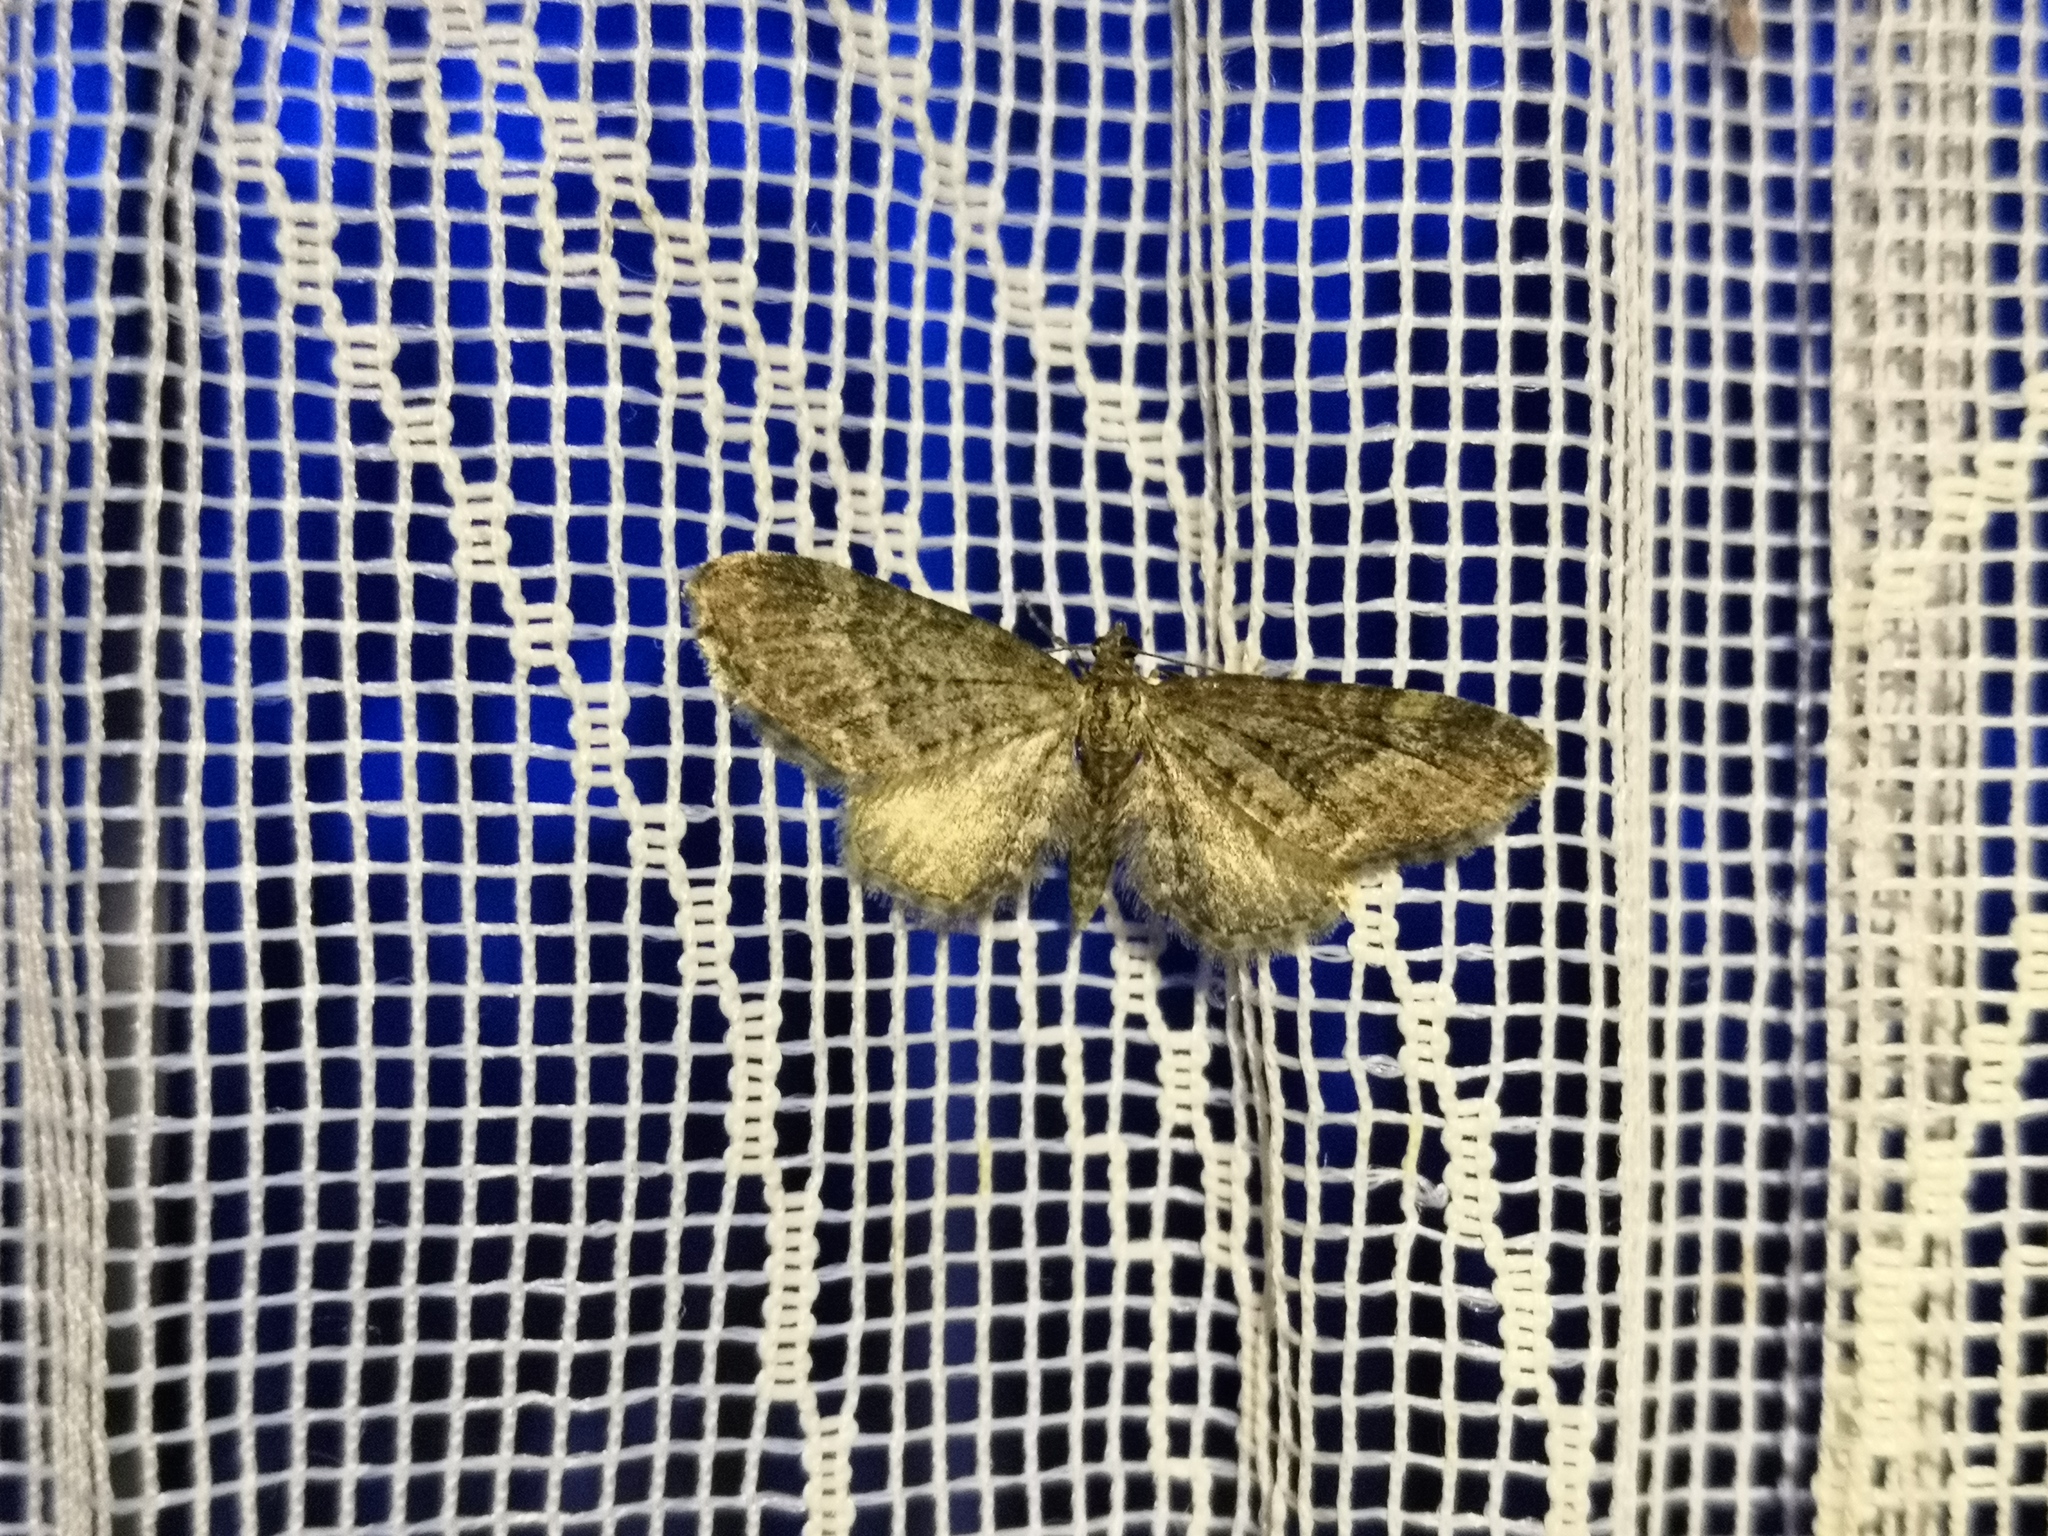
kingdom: Animalia
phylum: Arthropoda
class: Insecta
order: Lepidoptera
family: Geometridae
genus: Eupithecia
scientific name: Eupithecia vulgata
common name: Common pug
